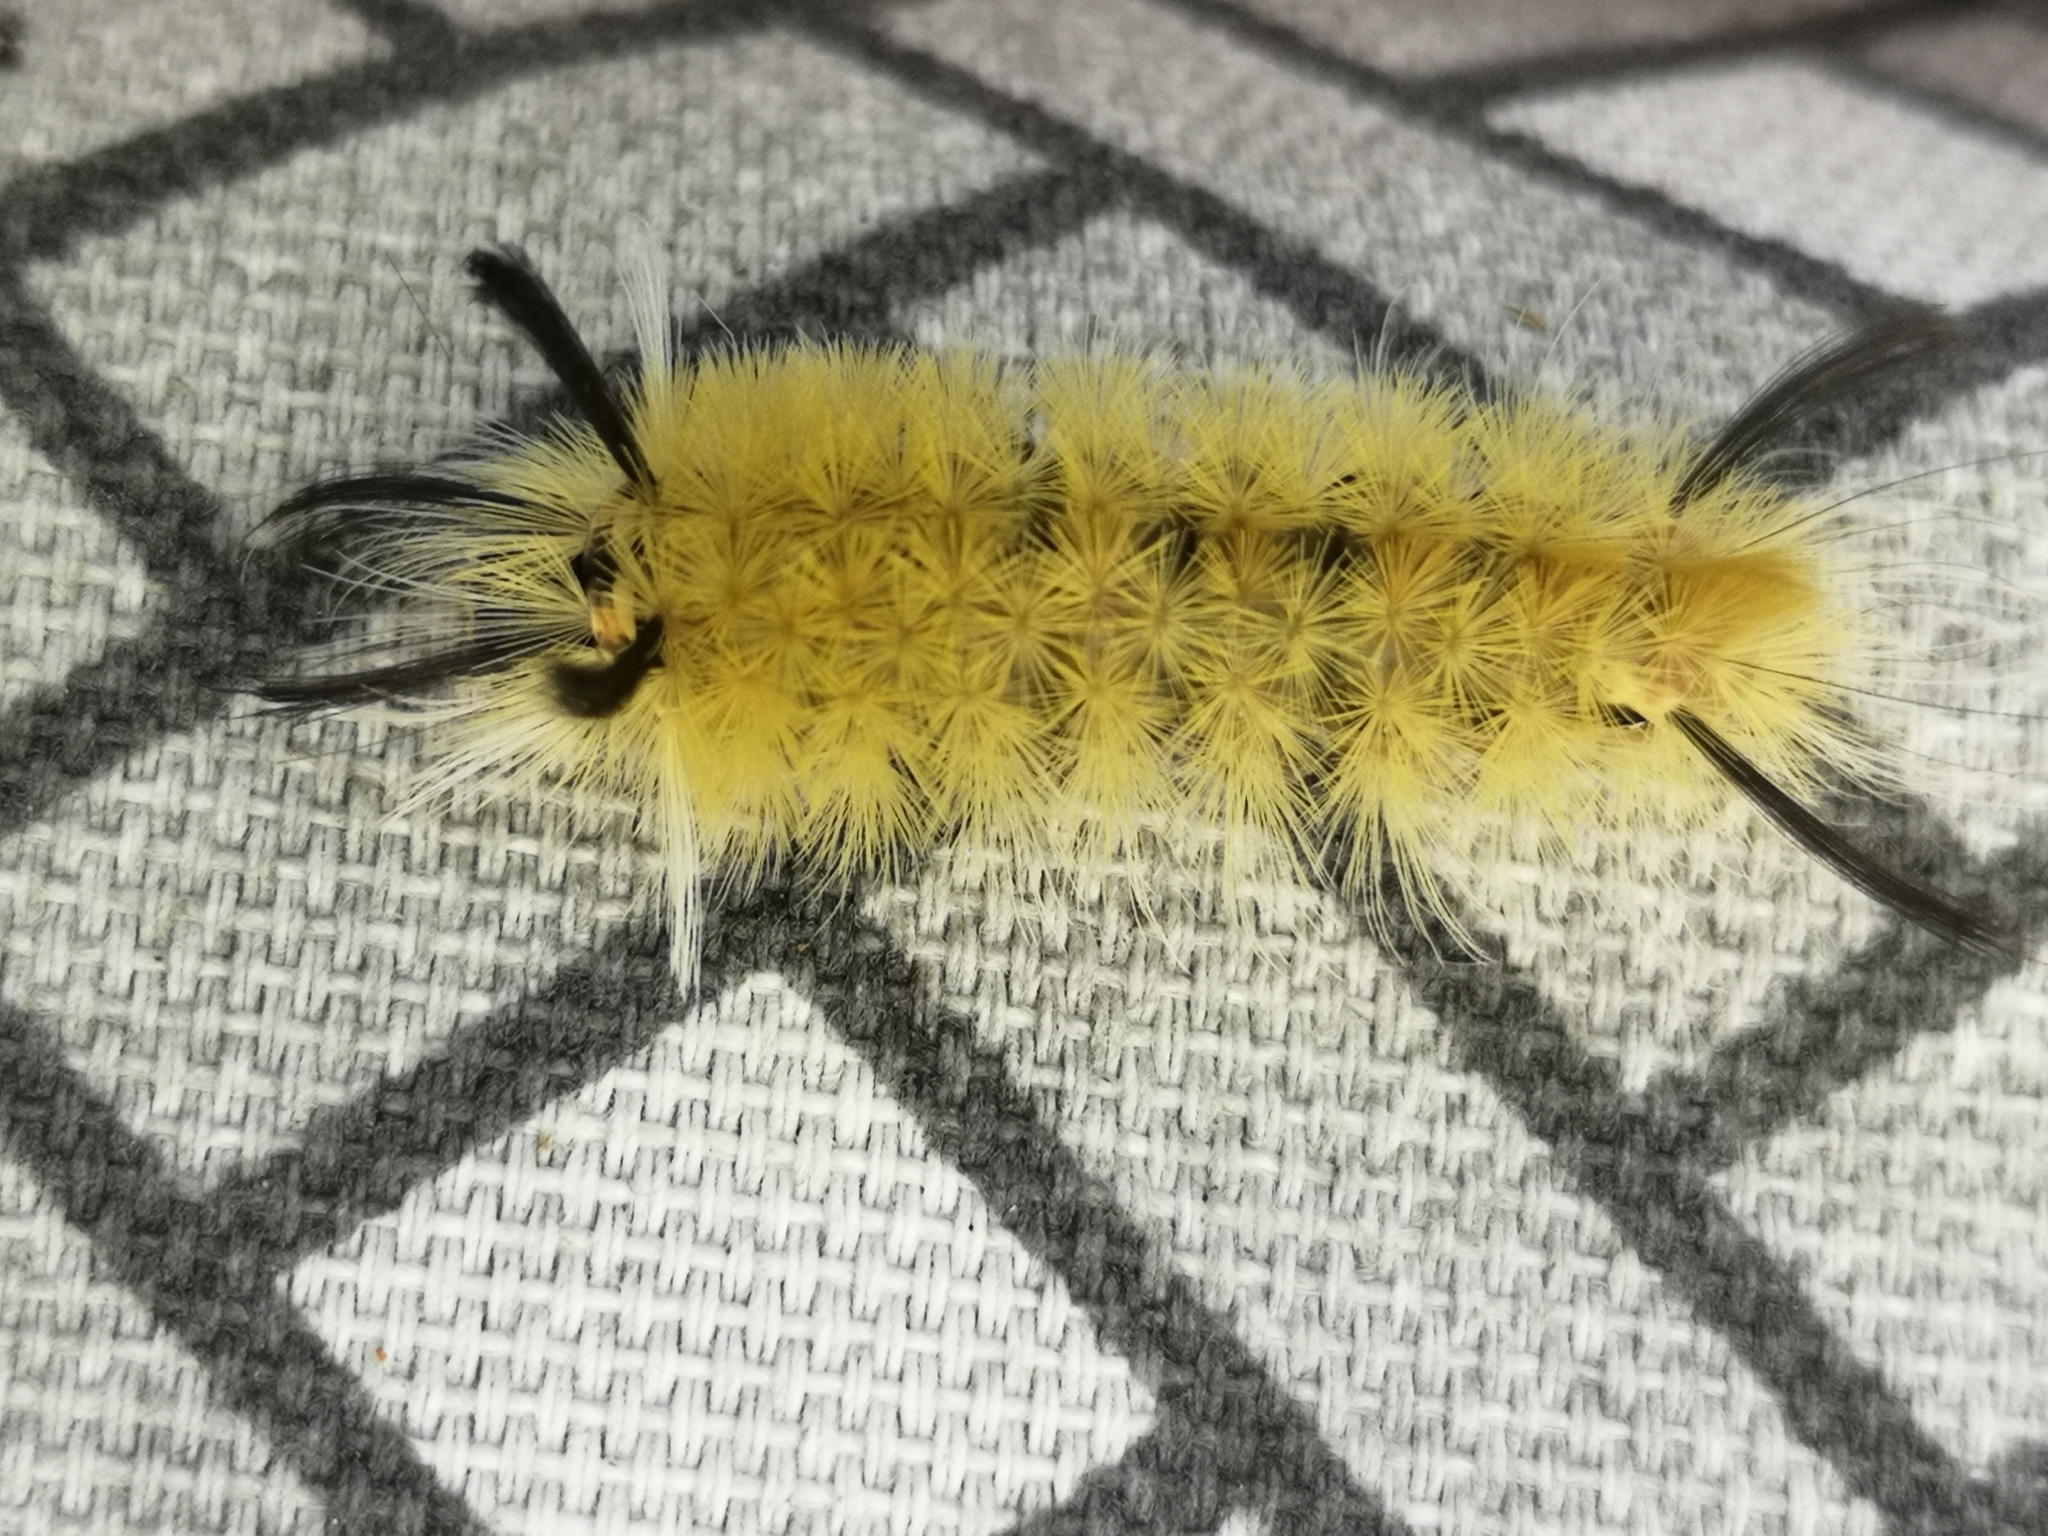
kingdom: Animalia
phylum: Arthropoda
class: Insecta
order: Lepidoptera
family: Erebidae
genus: Halysidota
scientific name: Halysidota tessellaris
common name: Banded tussock moth
